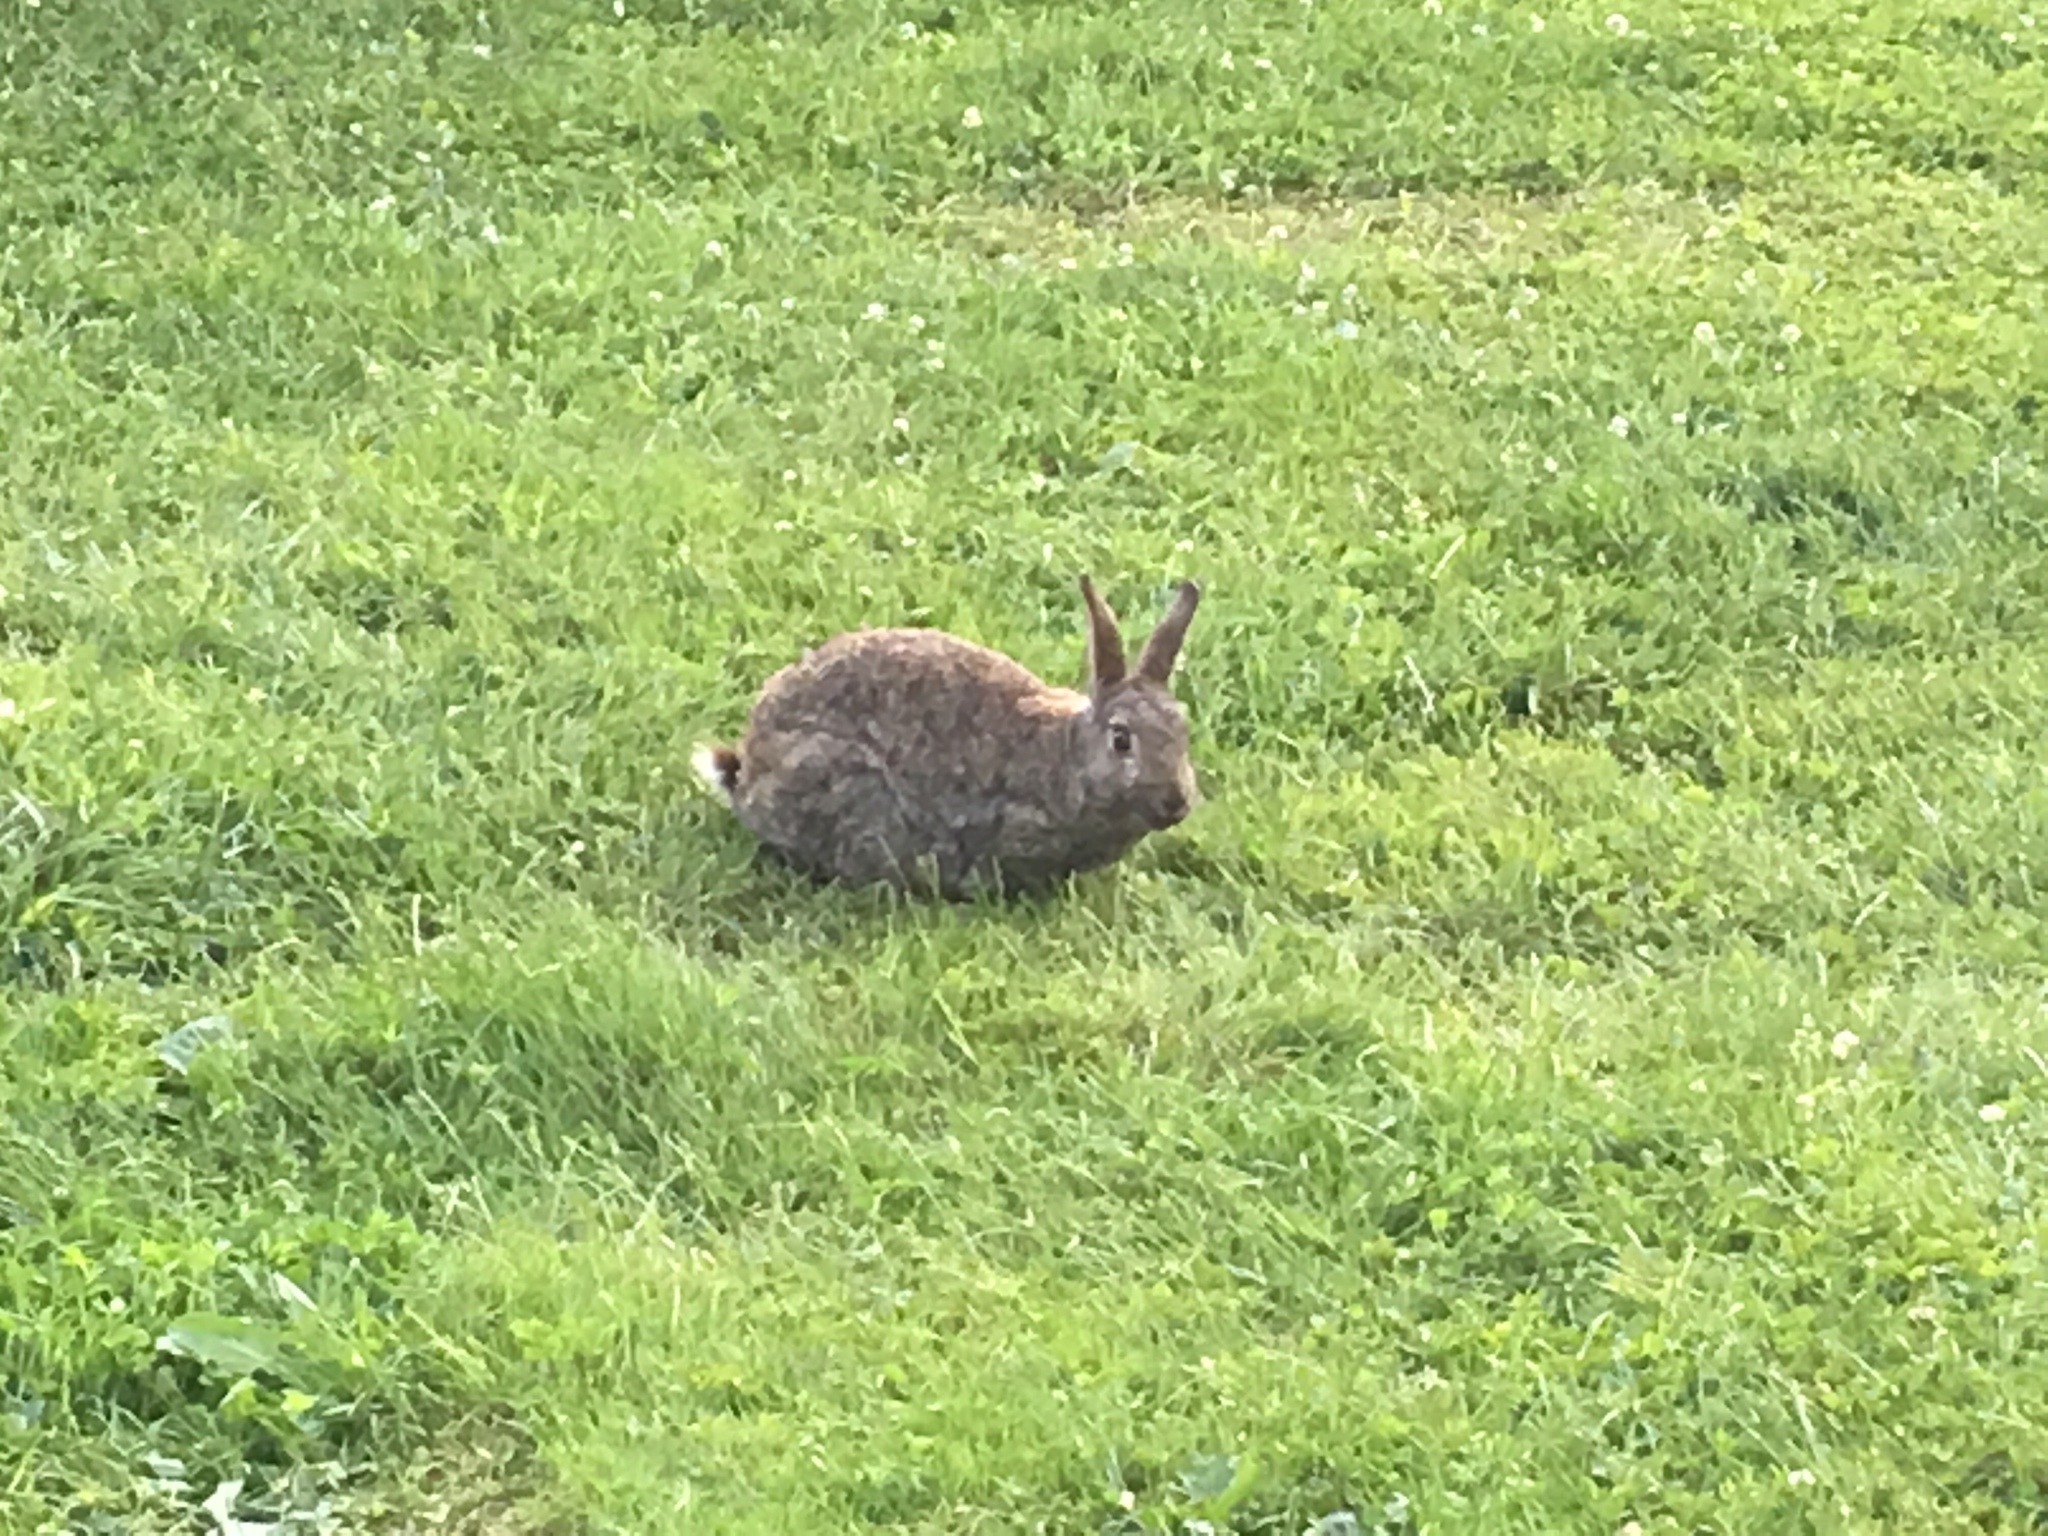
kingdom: Animalia
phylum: Chordata
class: Mammalia
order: Lagomorpha
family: Leporidae
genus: Oryctolagus
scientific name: Oryctolagus cuniculus
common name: European rabbit
